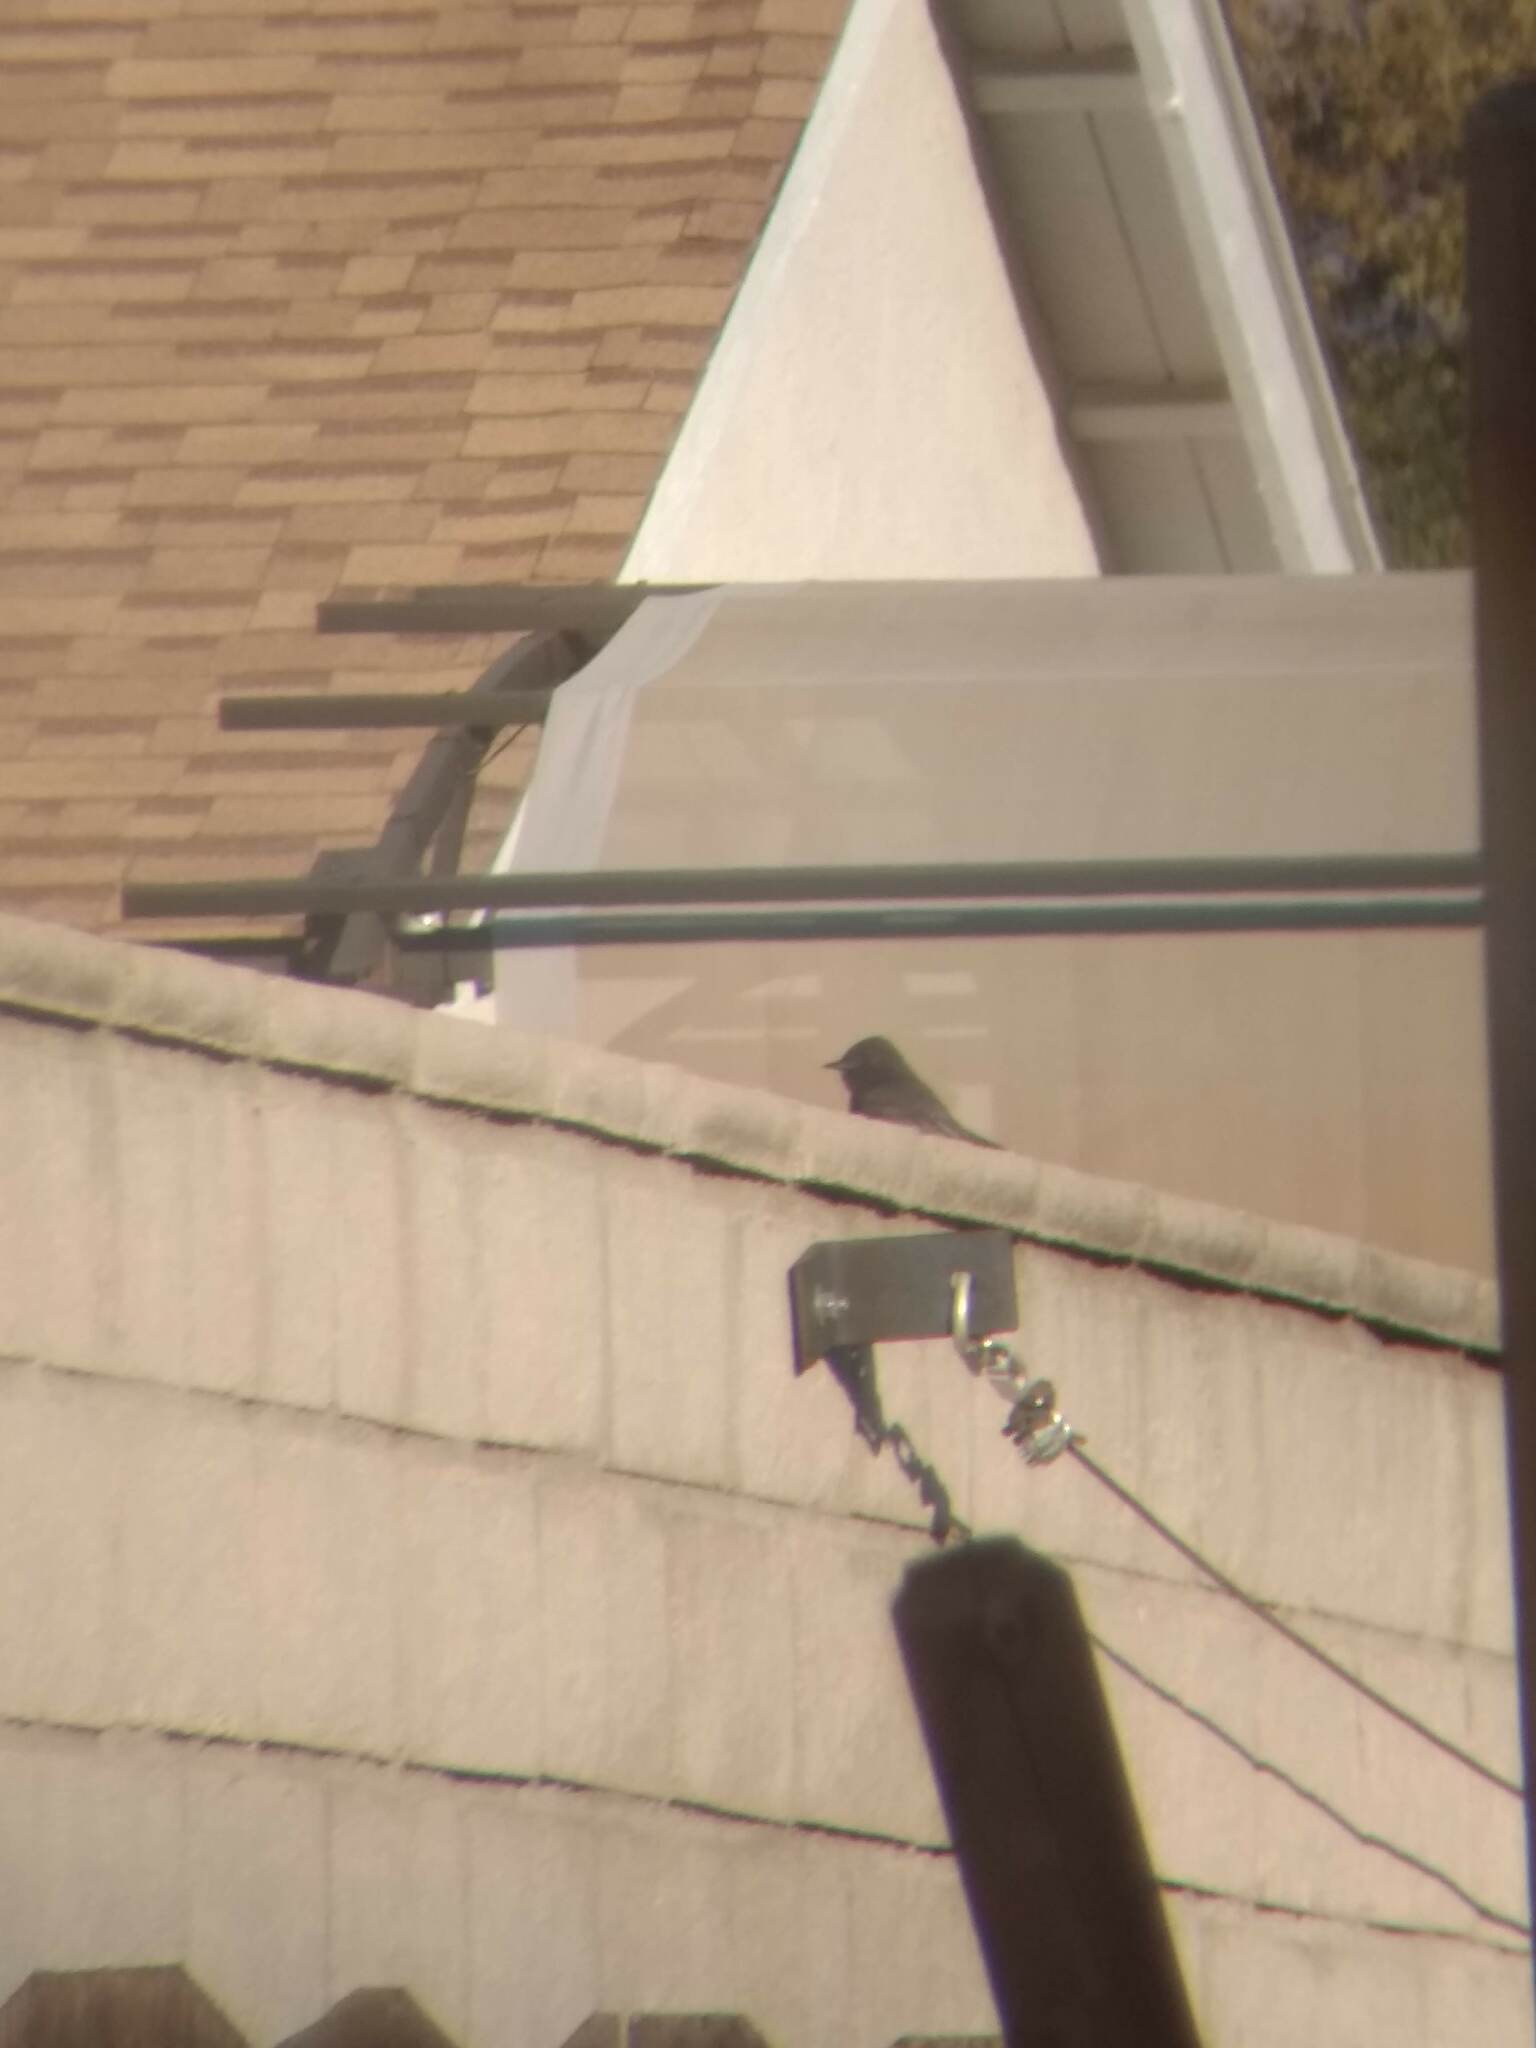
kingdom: Animalia
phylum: Chordata
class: Aves
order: Passeriformes
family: Tyrannidae
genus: Sayornis
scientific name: Sayornis nigricans
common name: Black phoebe
